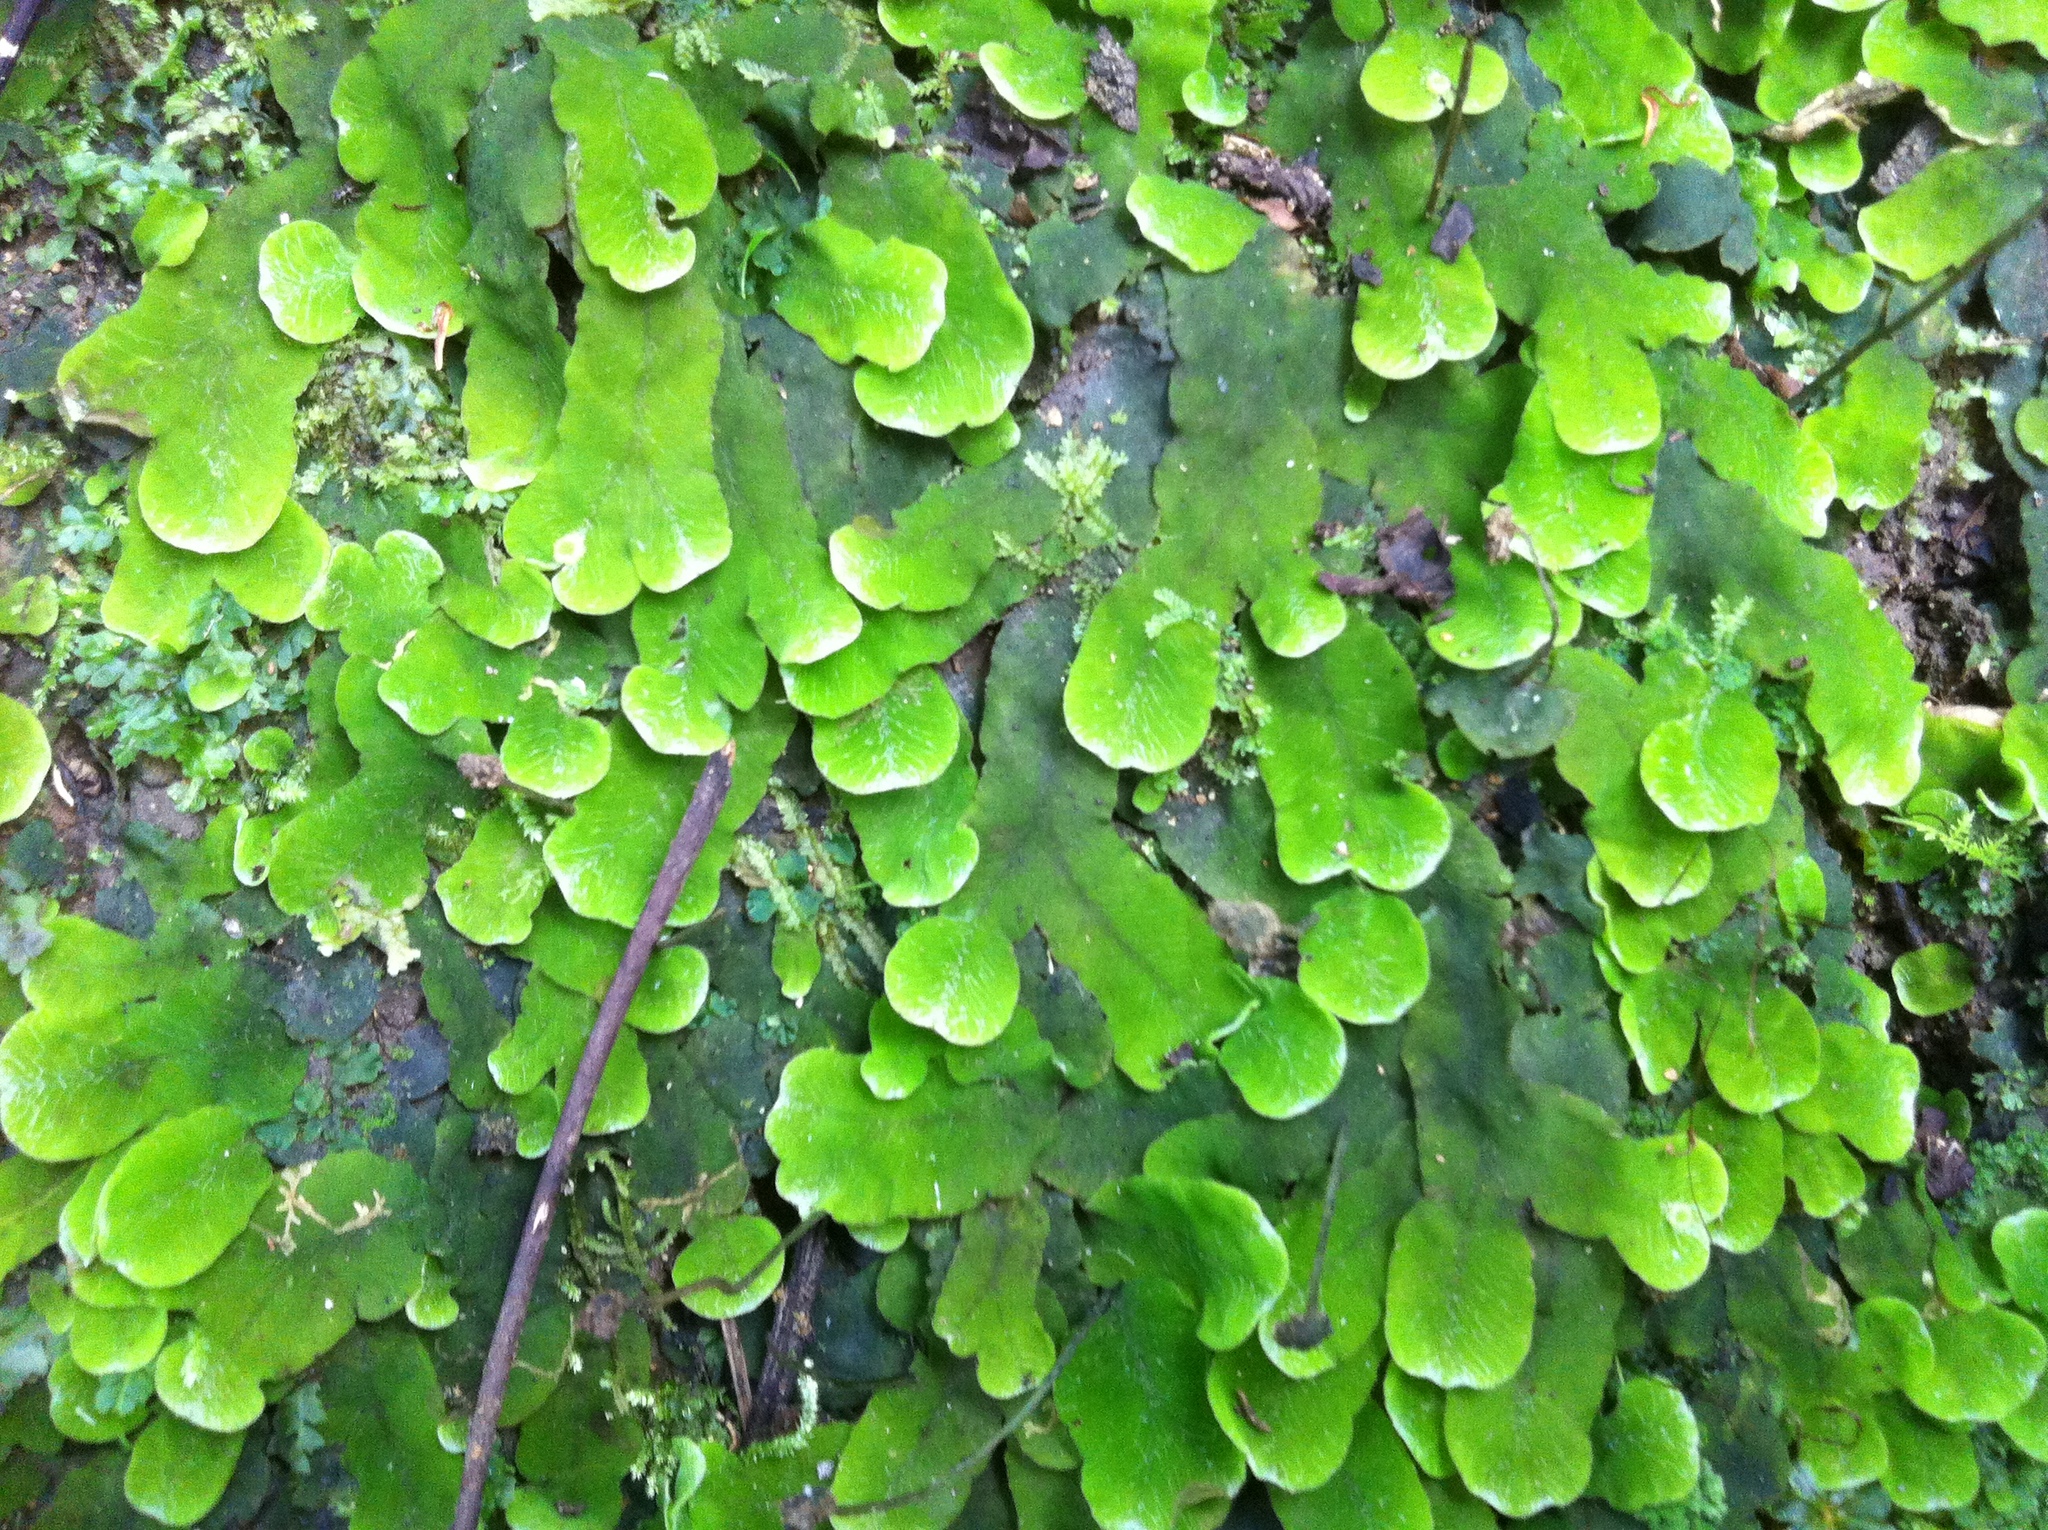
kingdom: Plantae
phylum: Marchantiophyta
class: Marchantiopsida
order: Marchantiales
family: Dumortieraceae
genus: Dumortiera
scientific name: Dumortiera hirsuta
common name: Dumortier's liverwort
